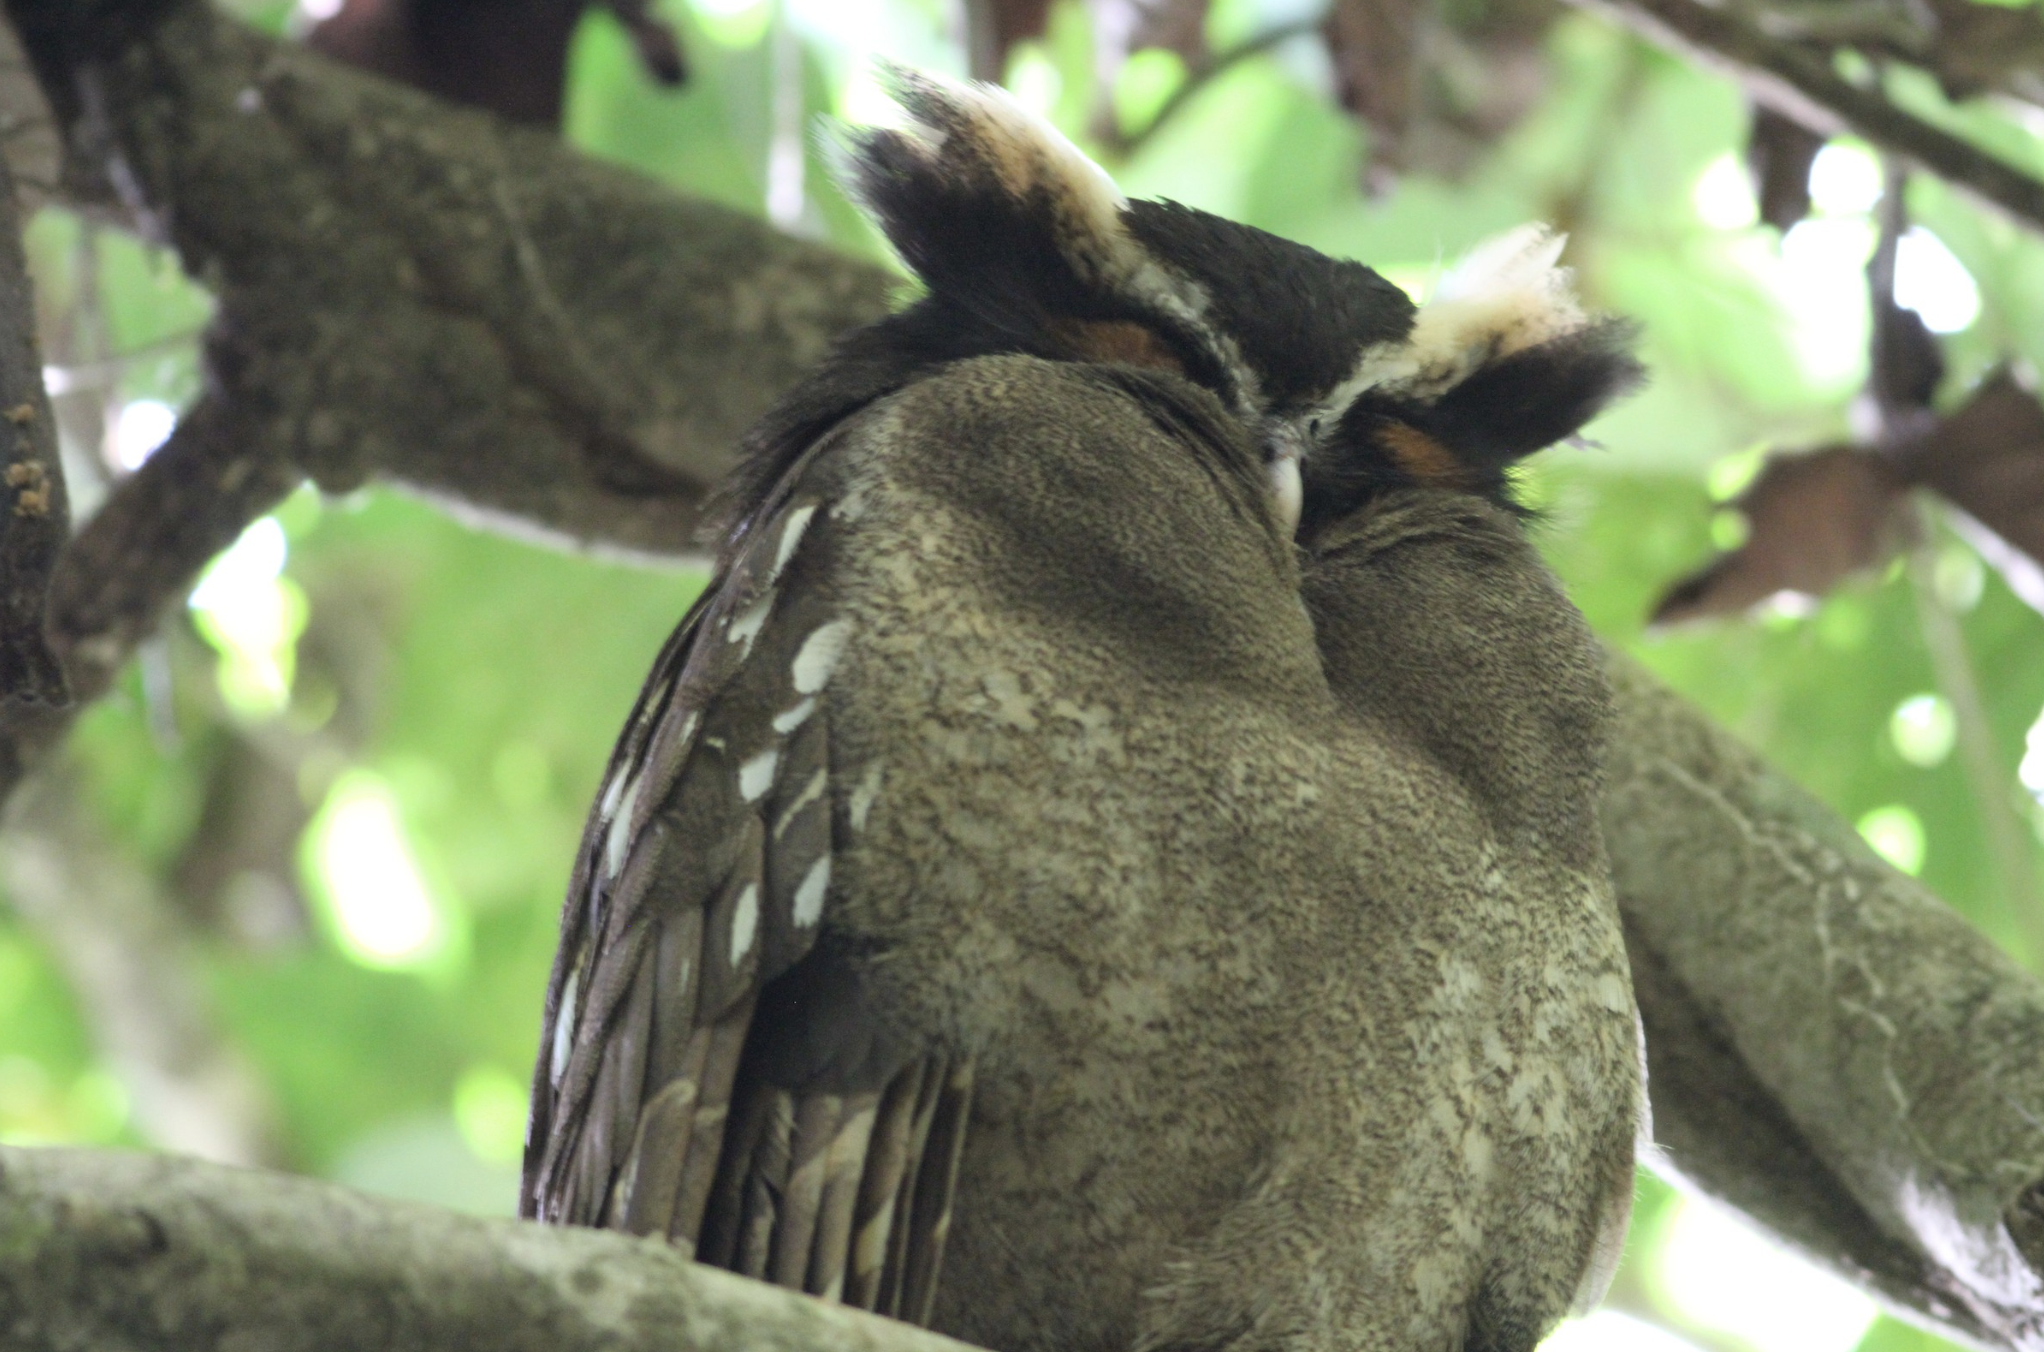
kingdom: Animalia
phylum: Chordata
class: Aves
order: Strigiformes
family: Strigidae
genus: Lophostrix
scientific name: Lophostrix cristata
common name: Crested owl
